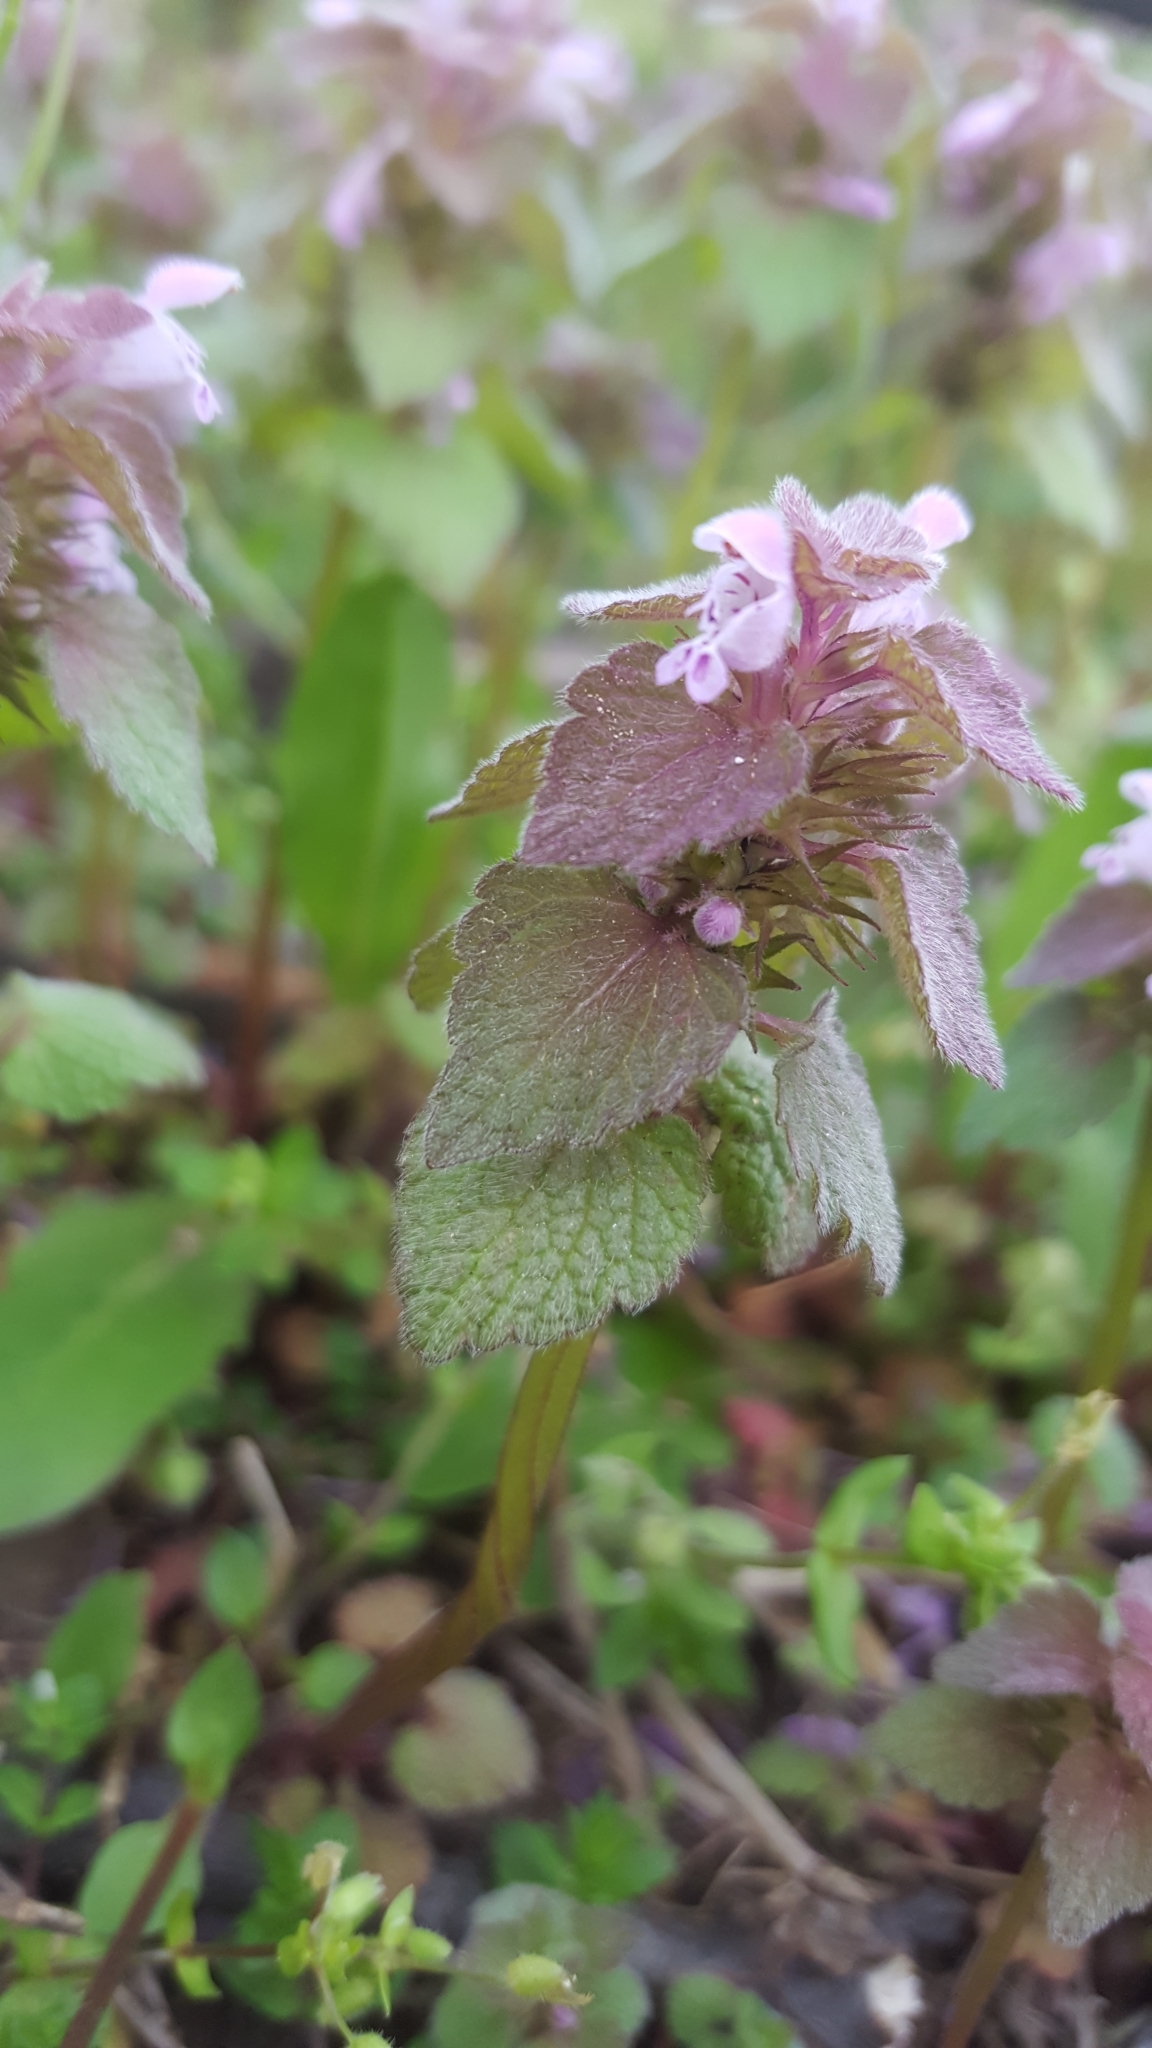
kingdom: Plantae
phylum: Tracheophyta
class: Magnoliopsida
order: Lamiales
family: Lamiaceae
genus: Lamium
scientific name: Lamium purpureum
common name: Red dead-nettle
